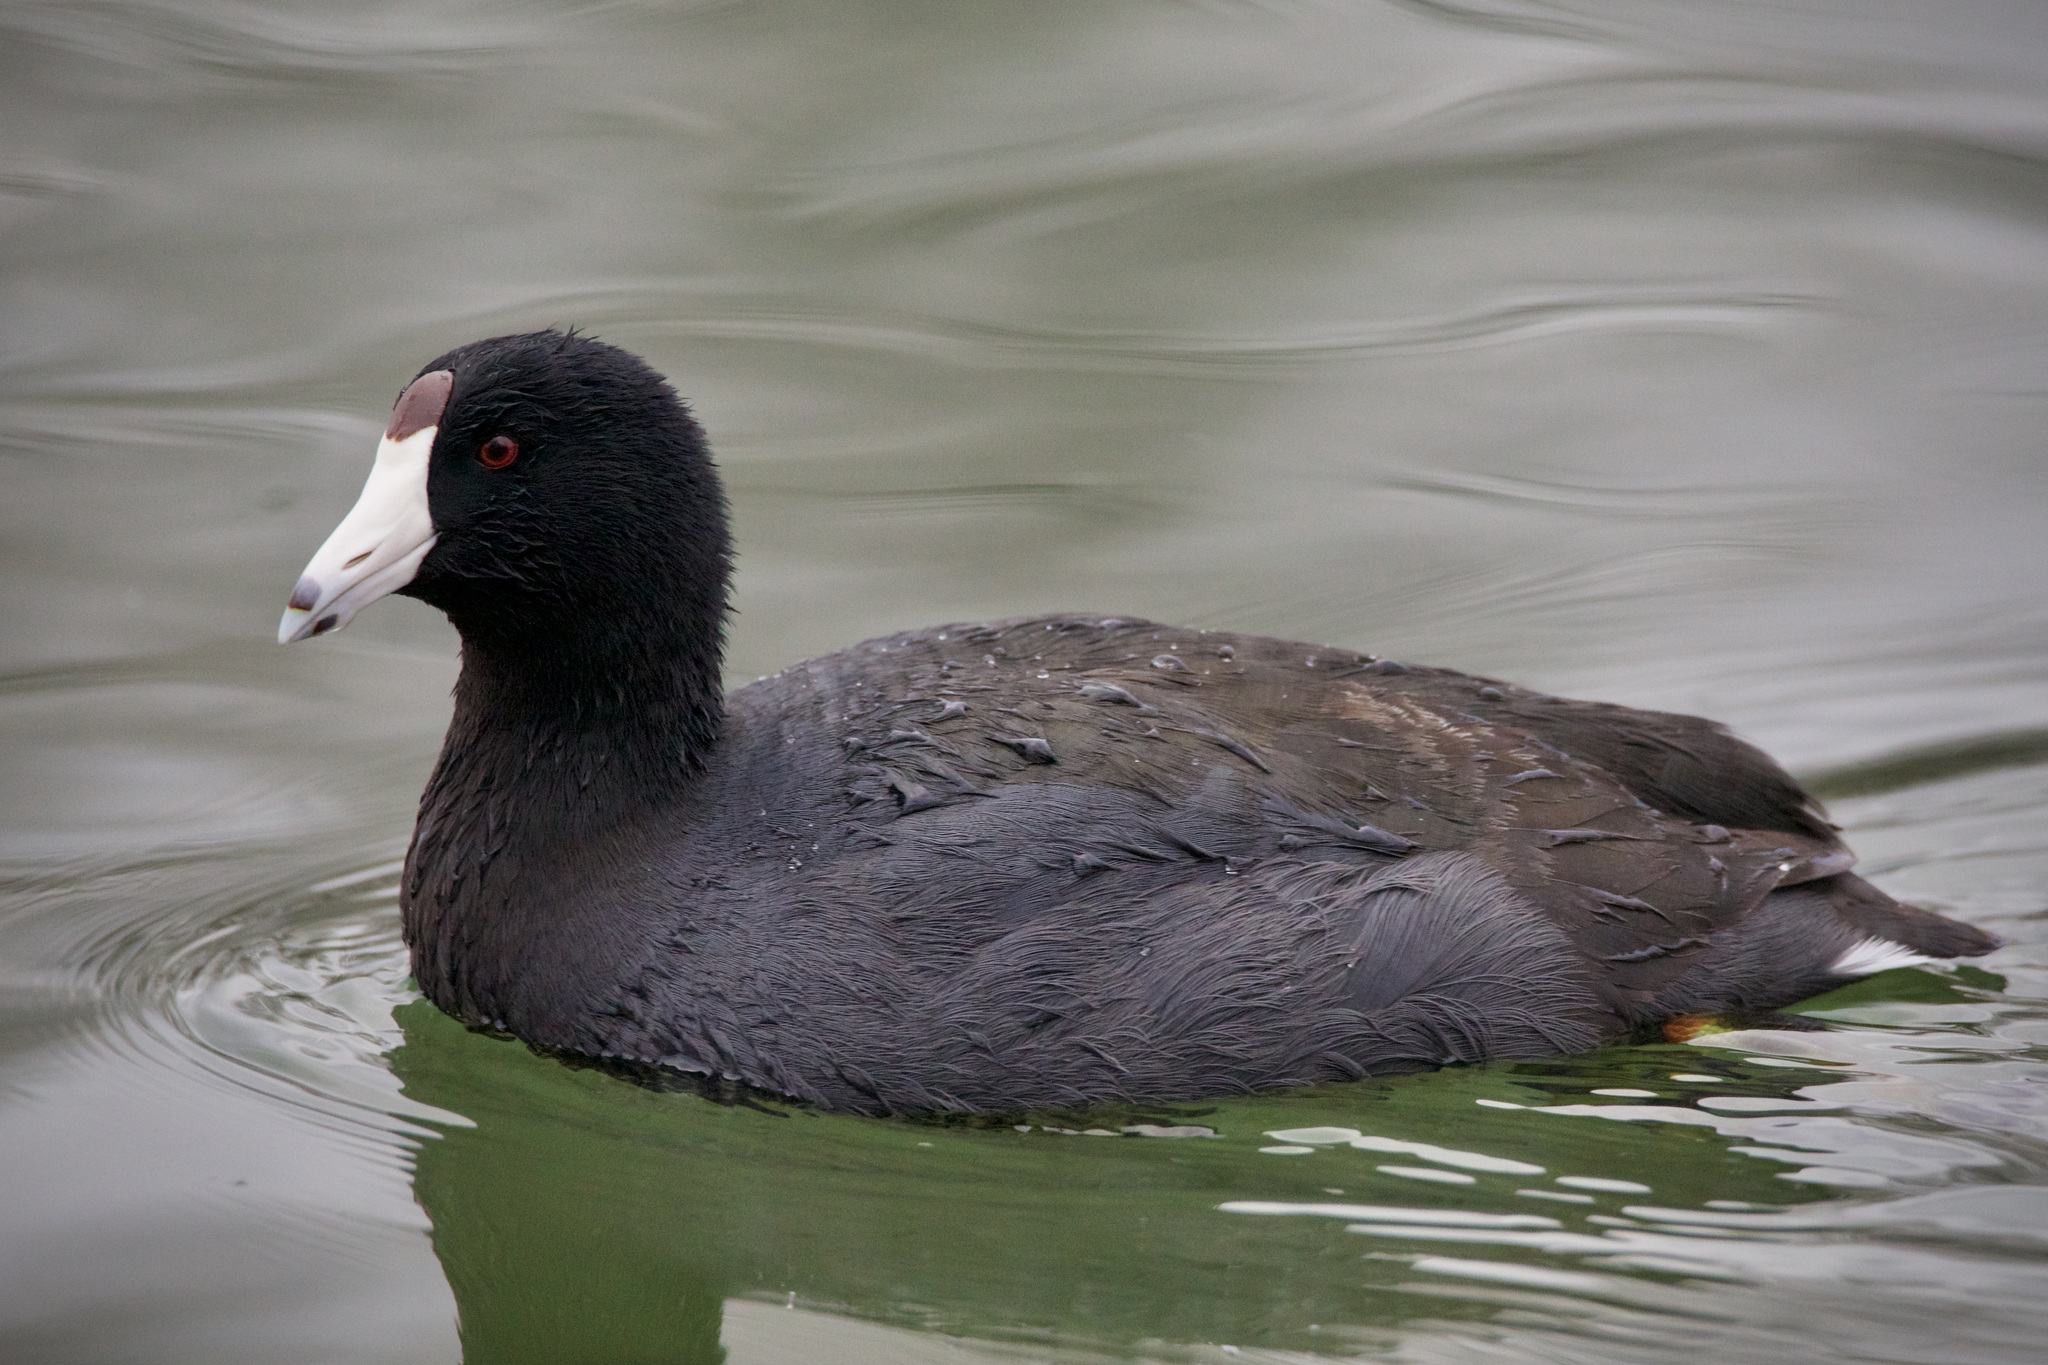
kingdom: Animalia
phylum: Chordata
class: Aves
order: Gruiformes
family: Rallidae
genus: Fulica
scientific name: Fulica americana
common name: American coot
